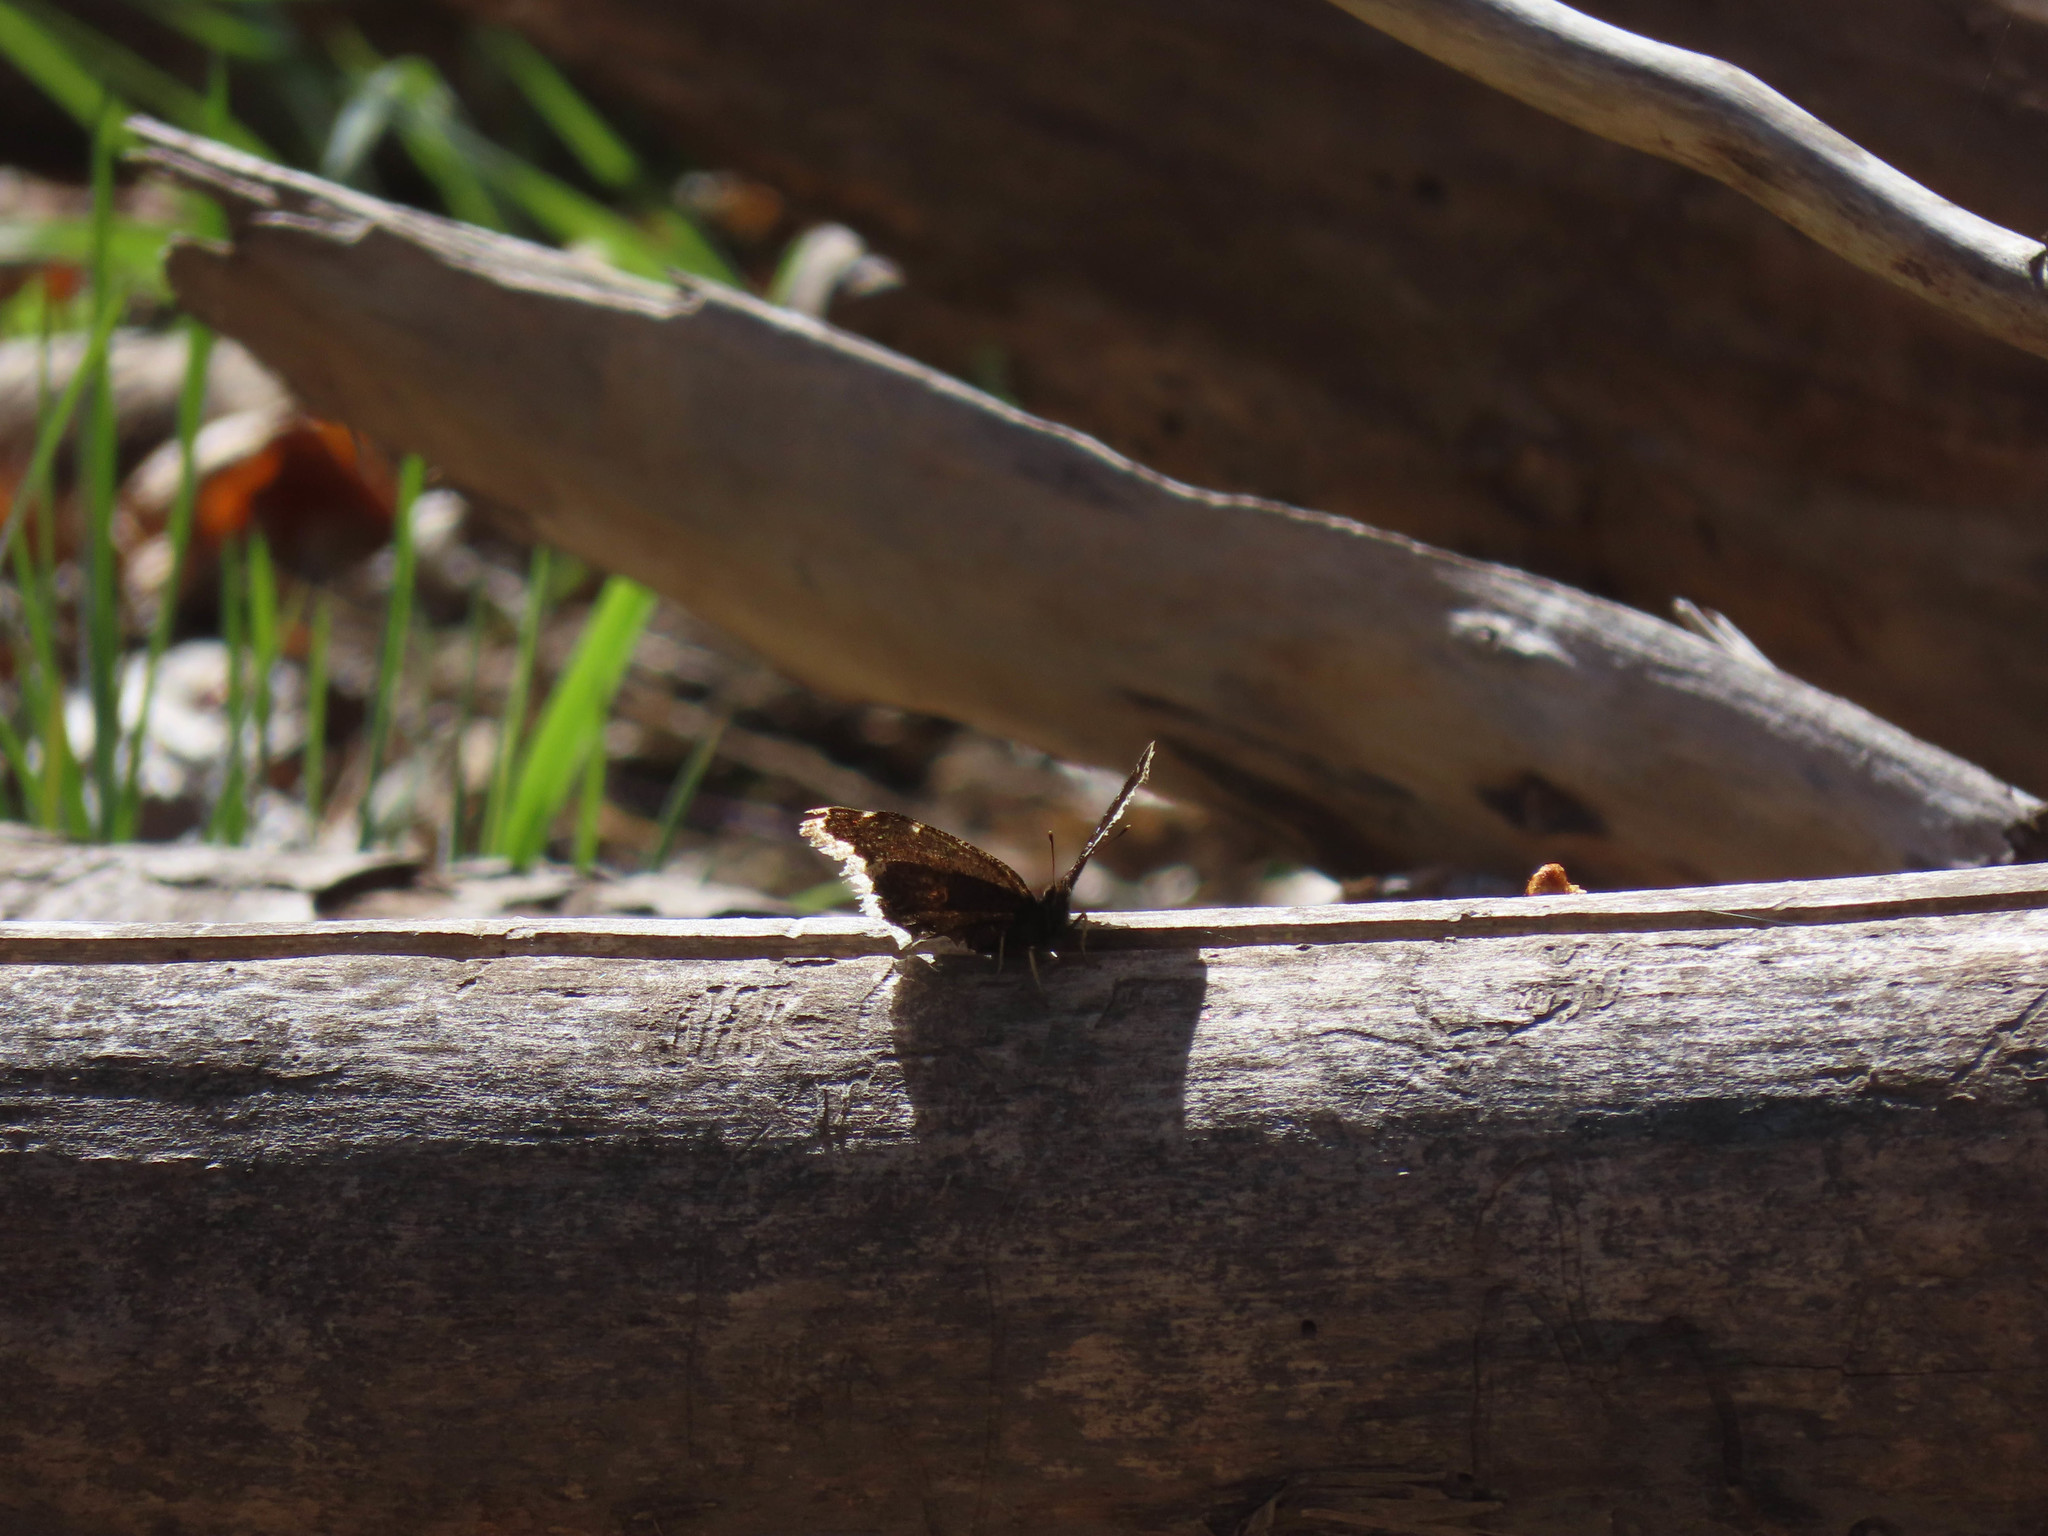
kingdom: Animalia
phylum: Arthropoda
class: Insecta
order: Lepidoptera
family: Nymphalidae
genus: Nymphalis
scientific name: Nymphalis antiopa
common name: Camberwell beauty
